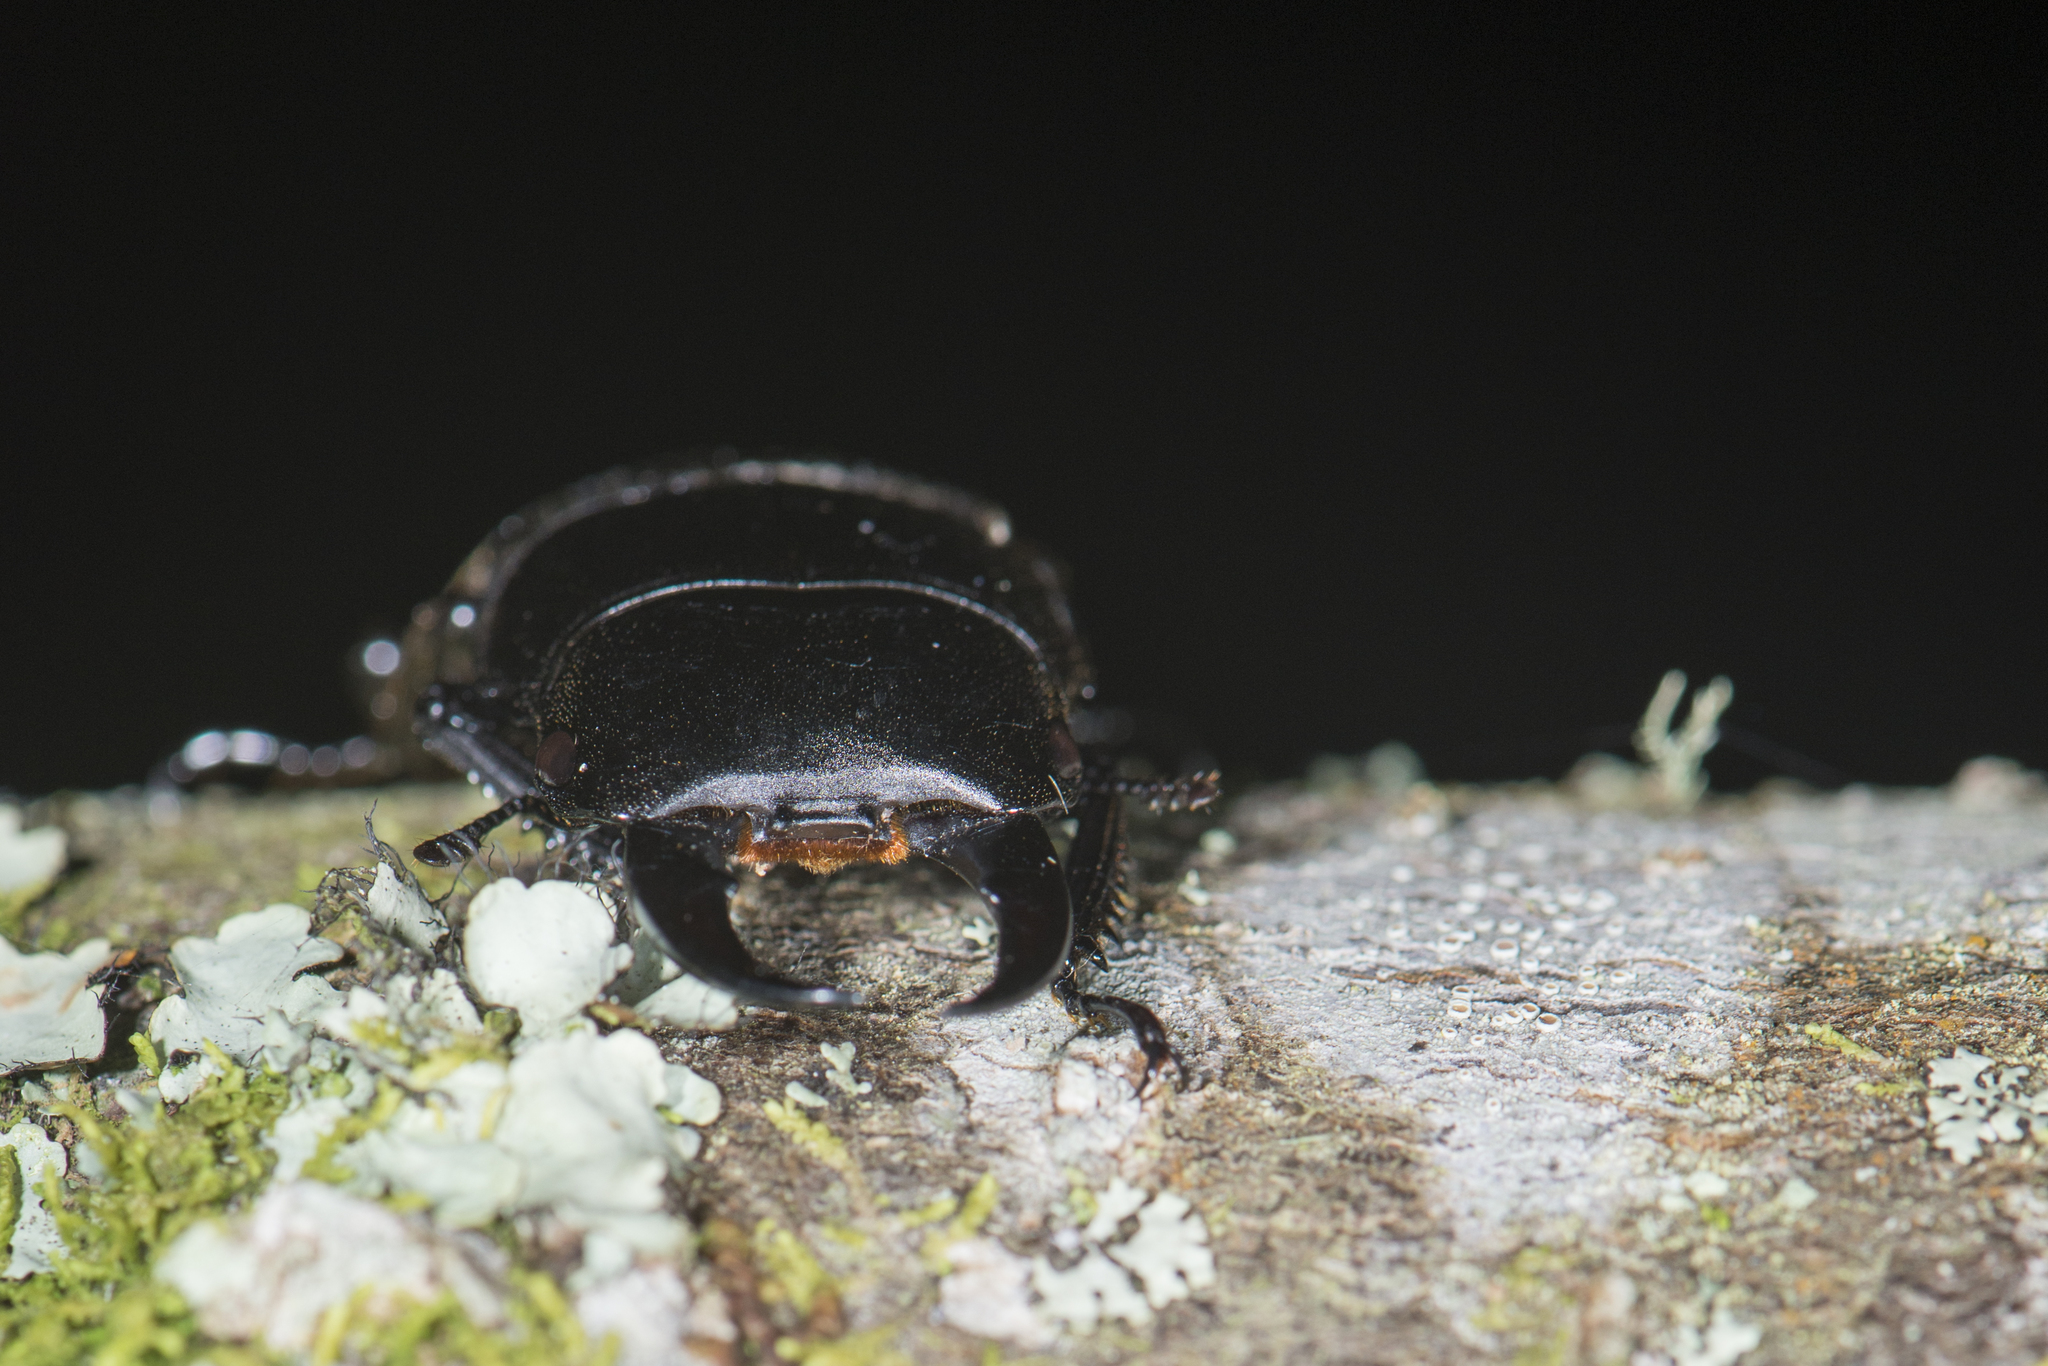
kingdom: Animalia
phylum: Arthropoda
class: Insecta
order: Coleoptera
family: Lucanidae
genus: Dorcus
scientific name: Dorcus miwai
